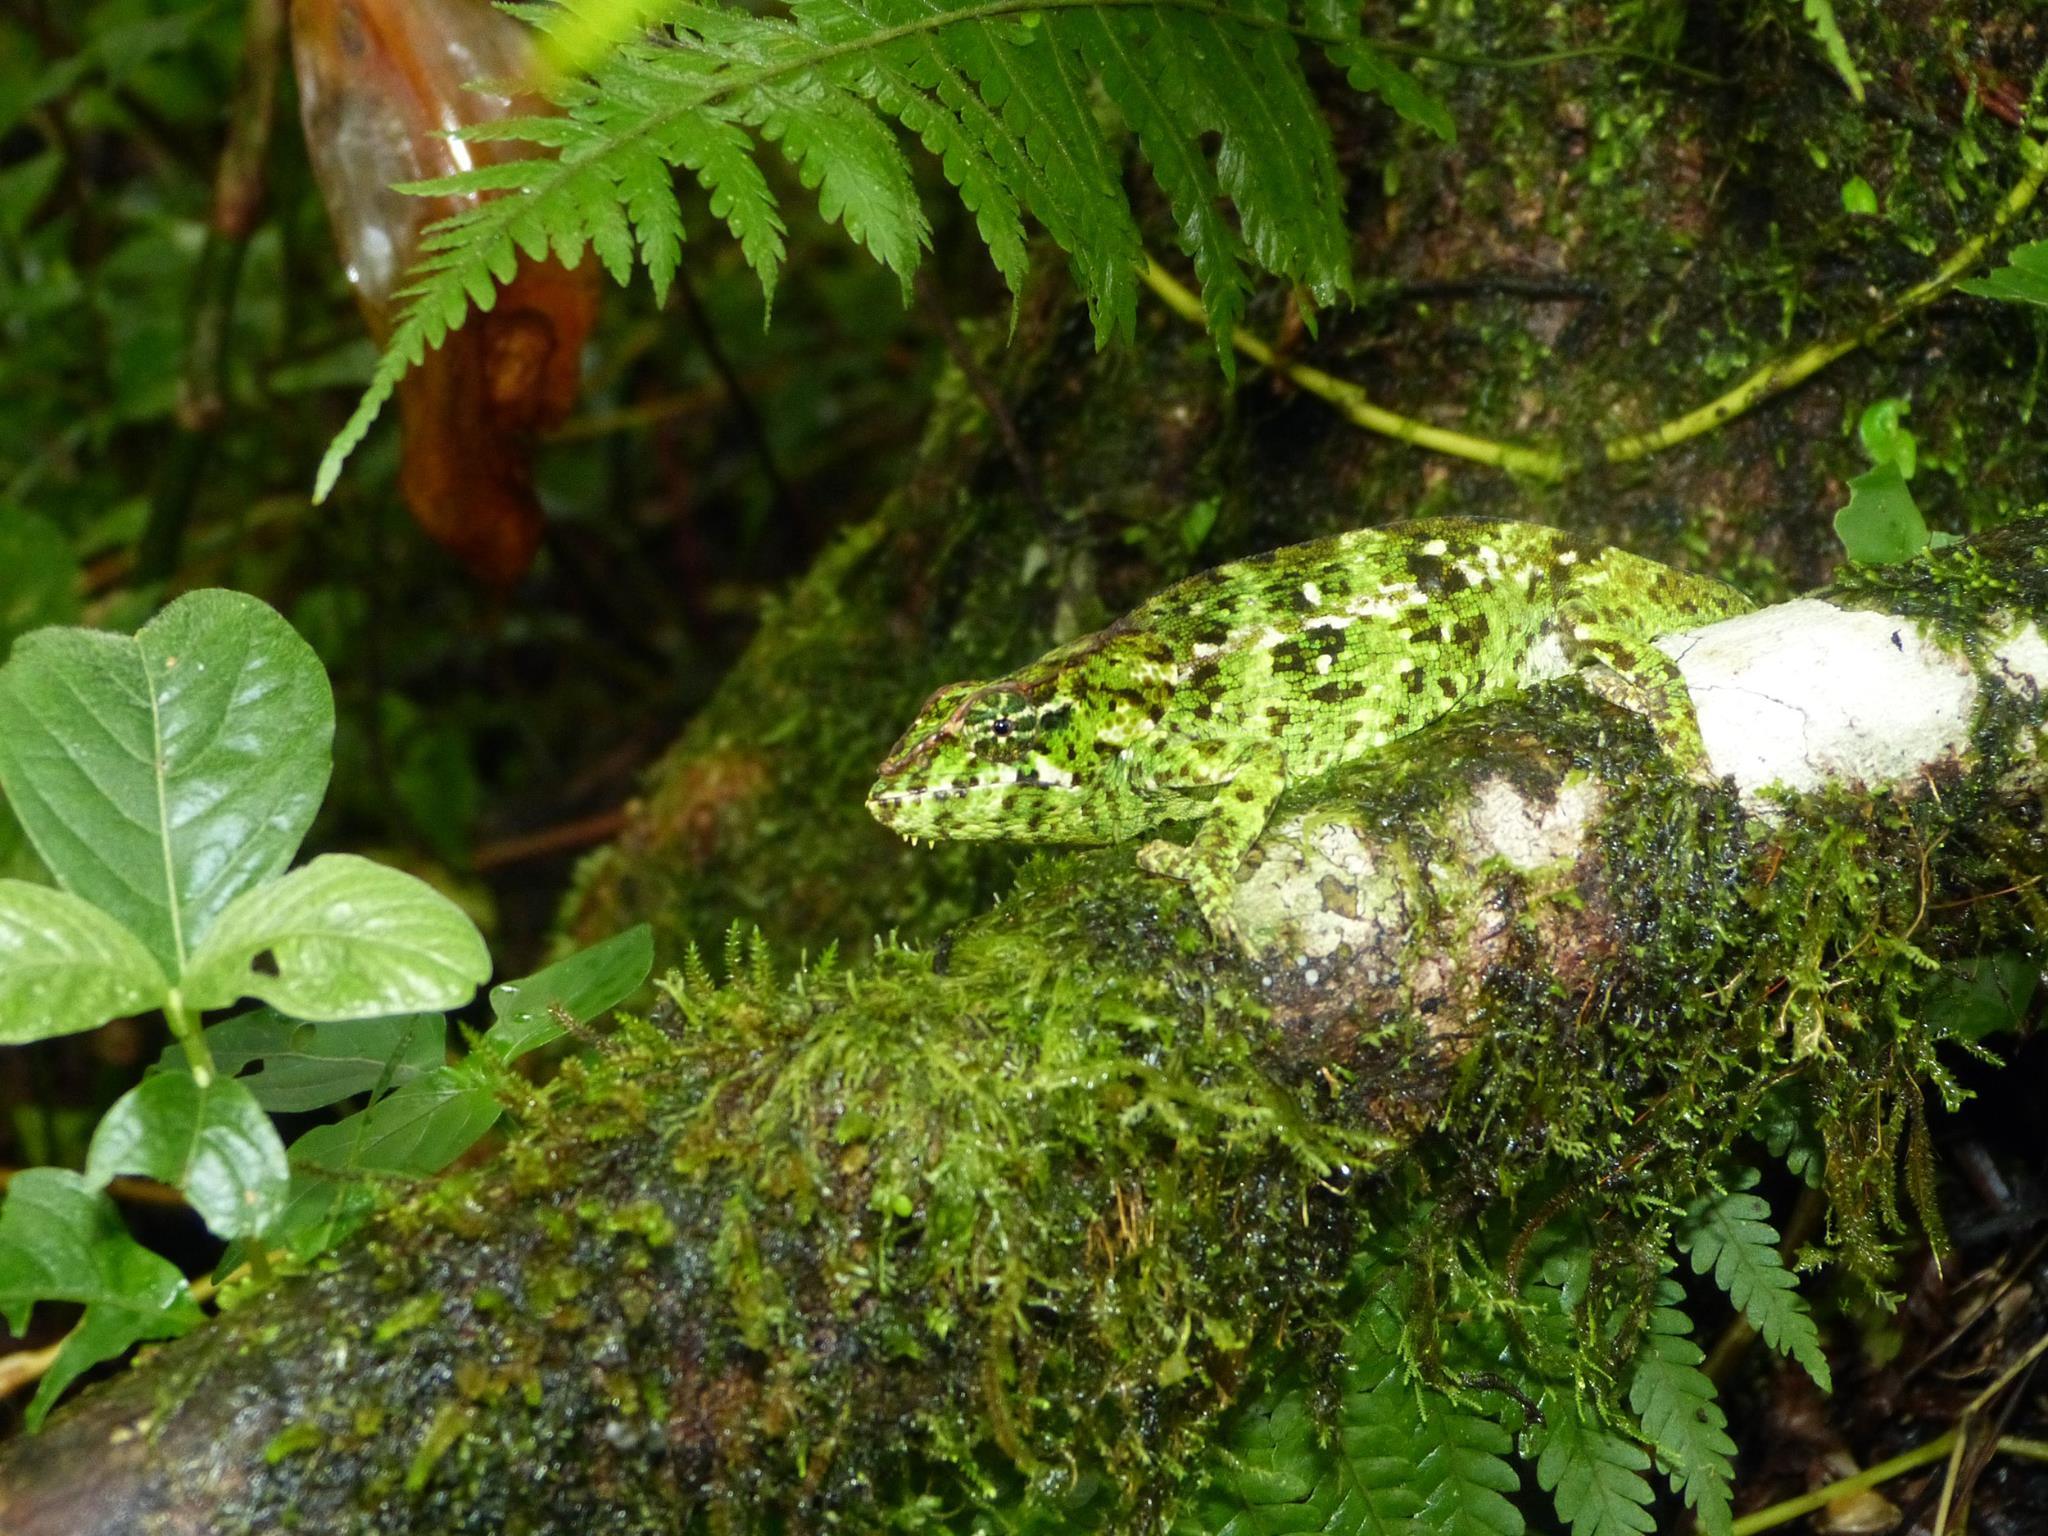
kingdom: Animalia
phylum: Chordata
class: Squamata
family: Chamaeleonidae
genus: Calumma
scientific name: Calumma amber
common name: Amber mountain chameleon
